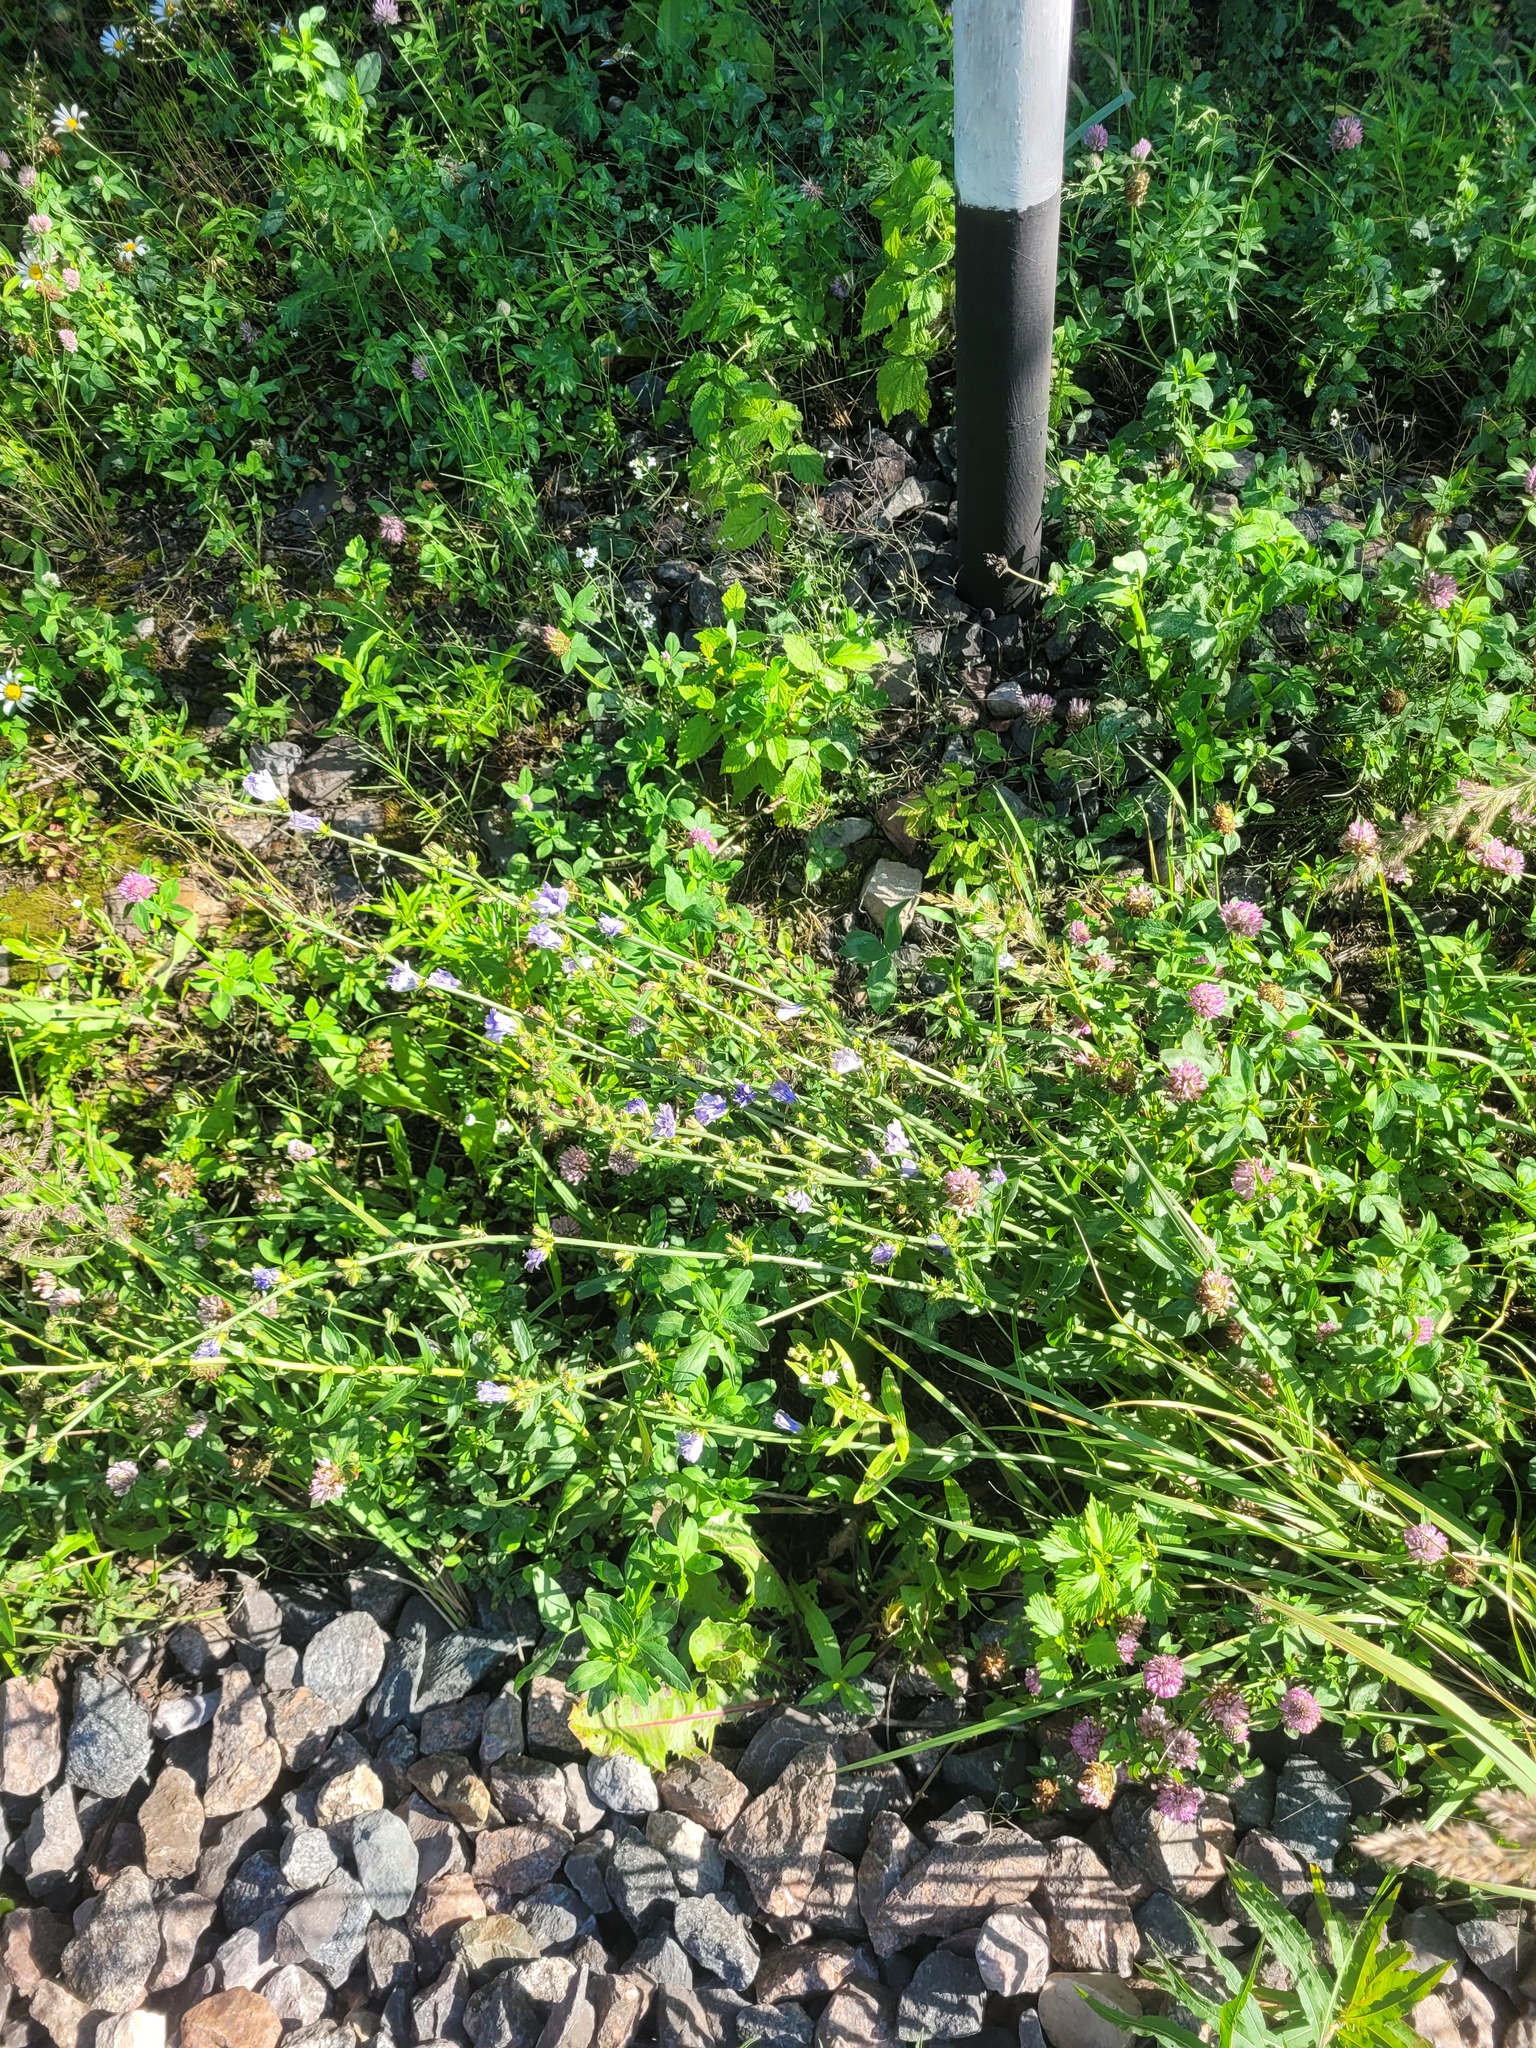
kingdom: Plantae
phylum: Tracheophyta
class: Magnoliopsida
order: Asterales
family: Asteraceae
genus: Cichorium
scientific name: Cichorium intybus
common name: Chicory
